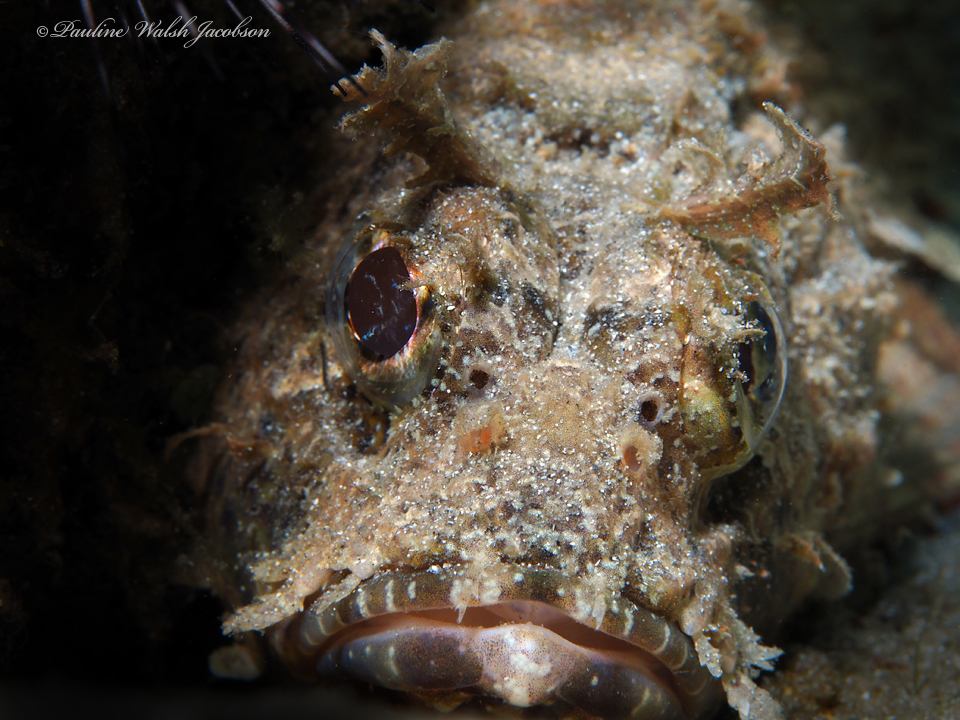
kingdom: Animalia
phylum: Chordata
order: Scorpaeniformes
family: Scorpaenidae
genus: Scorpaena
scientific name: Scorpaena brasiliensis
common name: Barbfish
